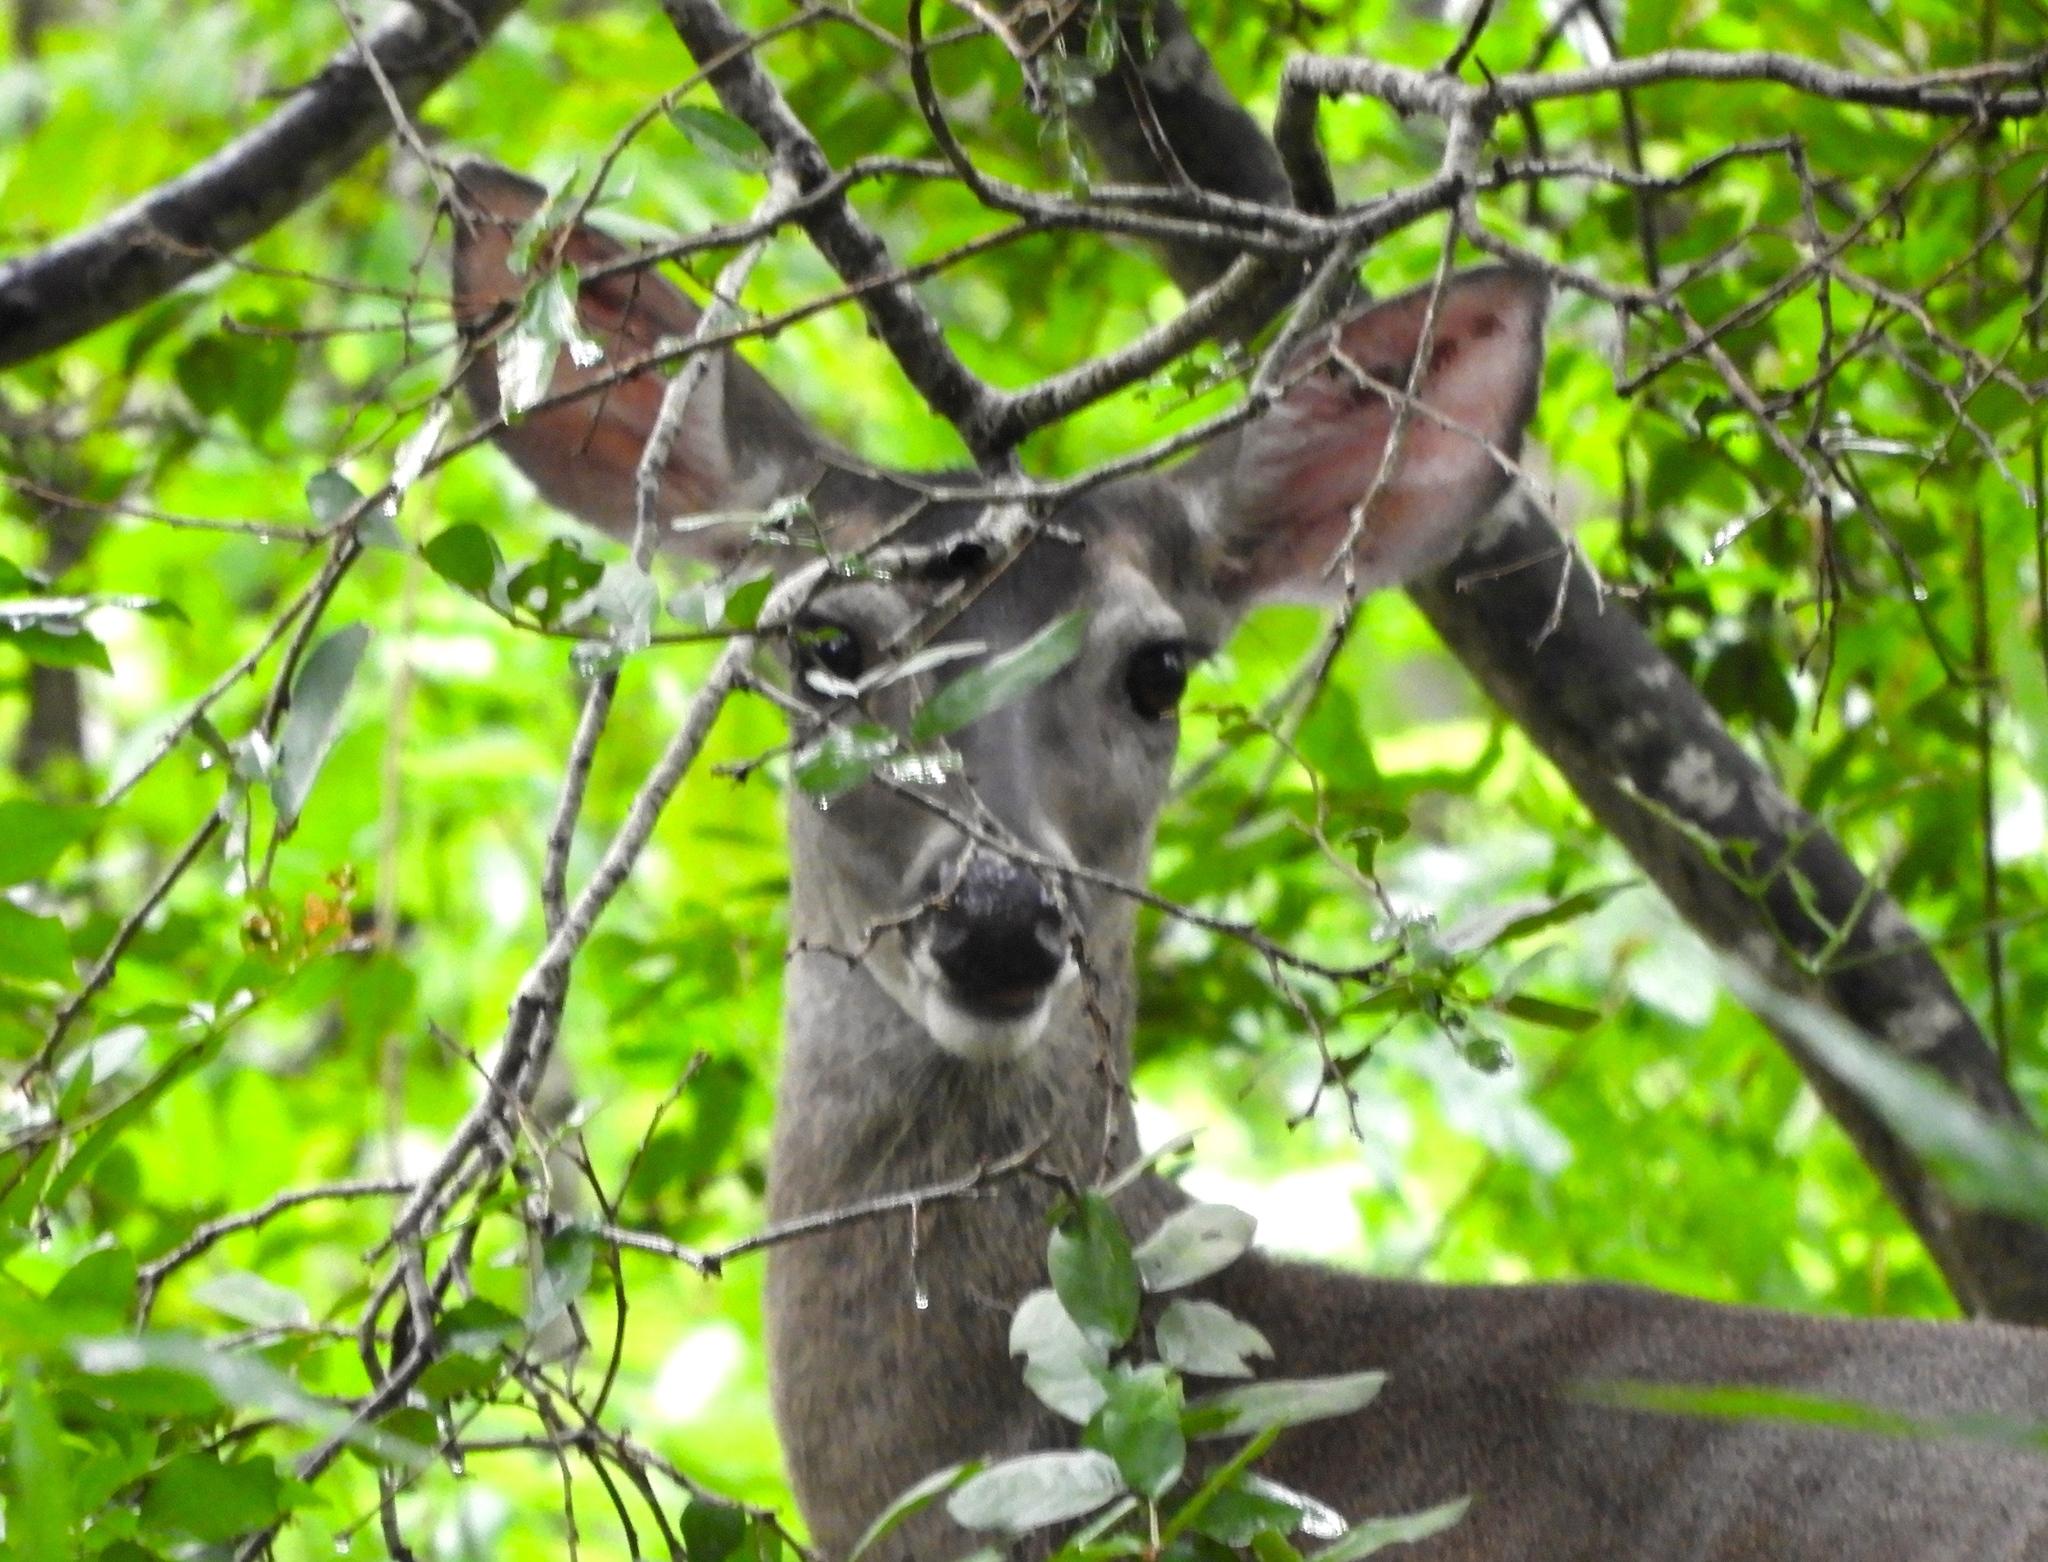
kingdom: Animalia
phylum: Chordata
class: Mammalia
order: Artiodactyla
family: Cervidae
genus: Odocoileus
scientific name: Odocoileus virginianus
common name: White-tailed deer
